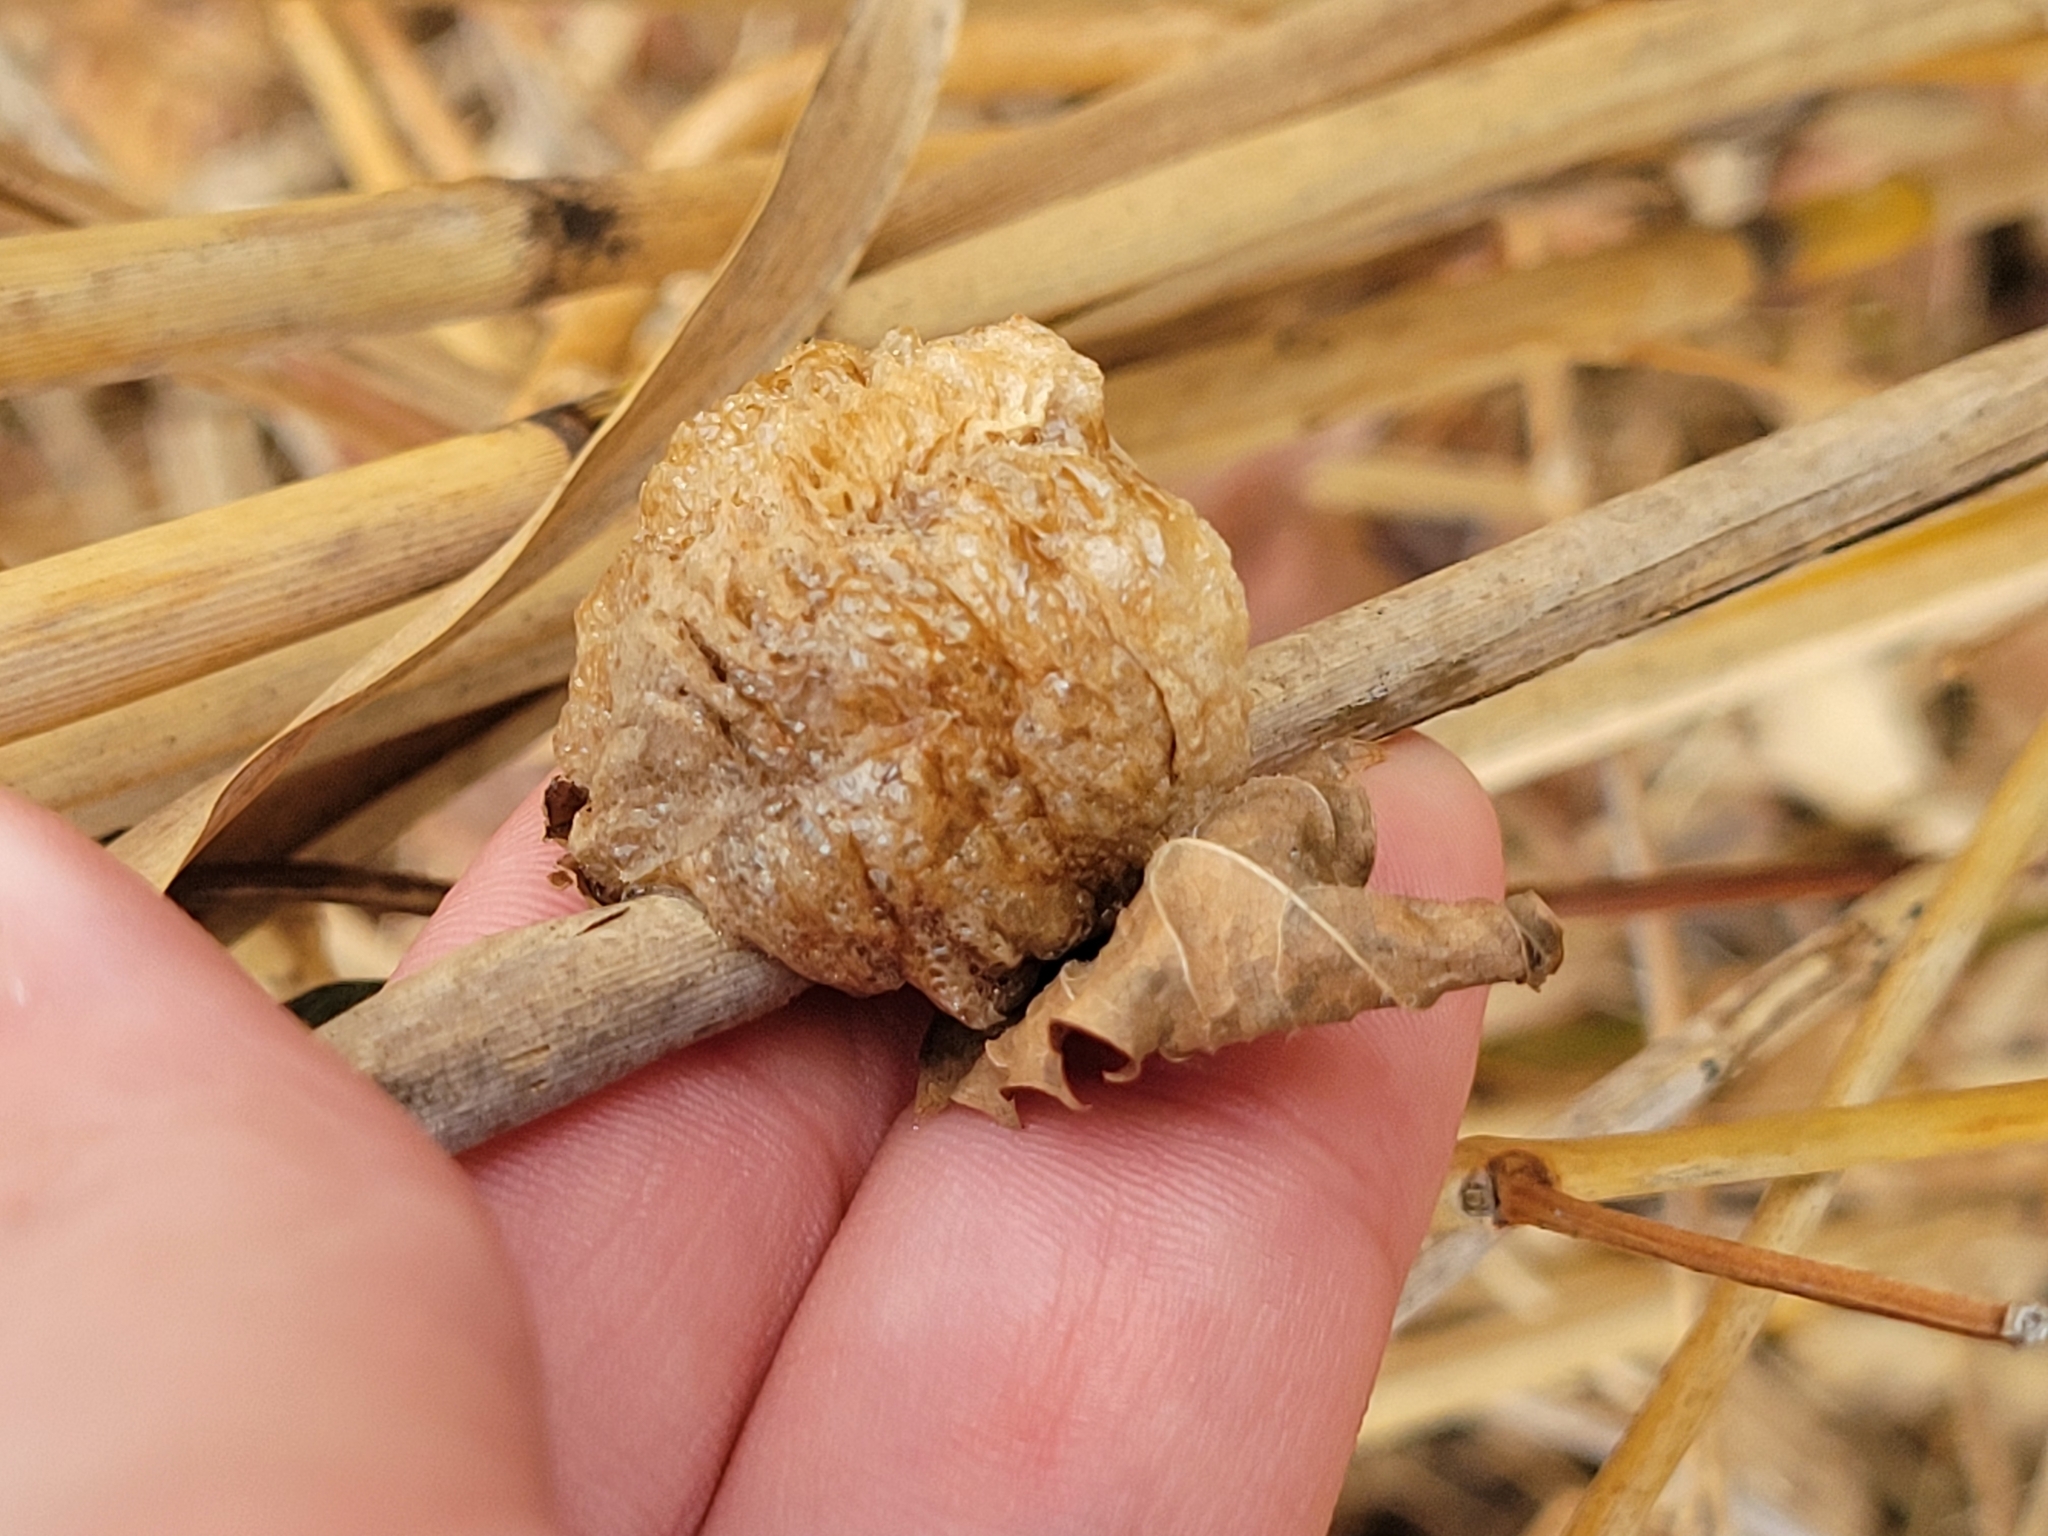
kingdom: Animalia
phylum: Arthropoda
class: Insecta
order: Mantodea
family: Mantidae
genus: Tenodera
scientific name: Tenodera sinensis
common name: Chinese mantis
